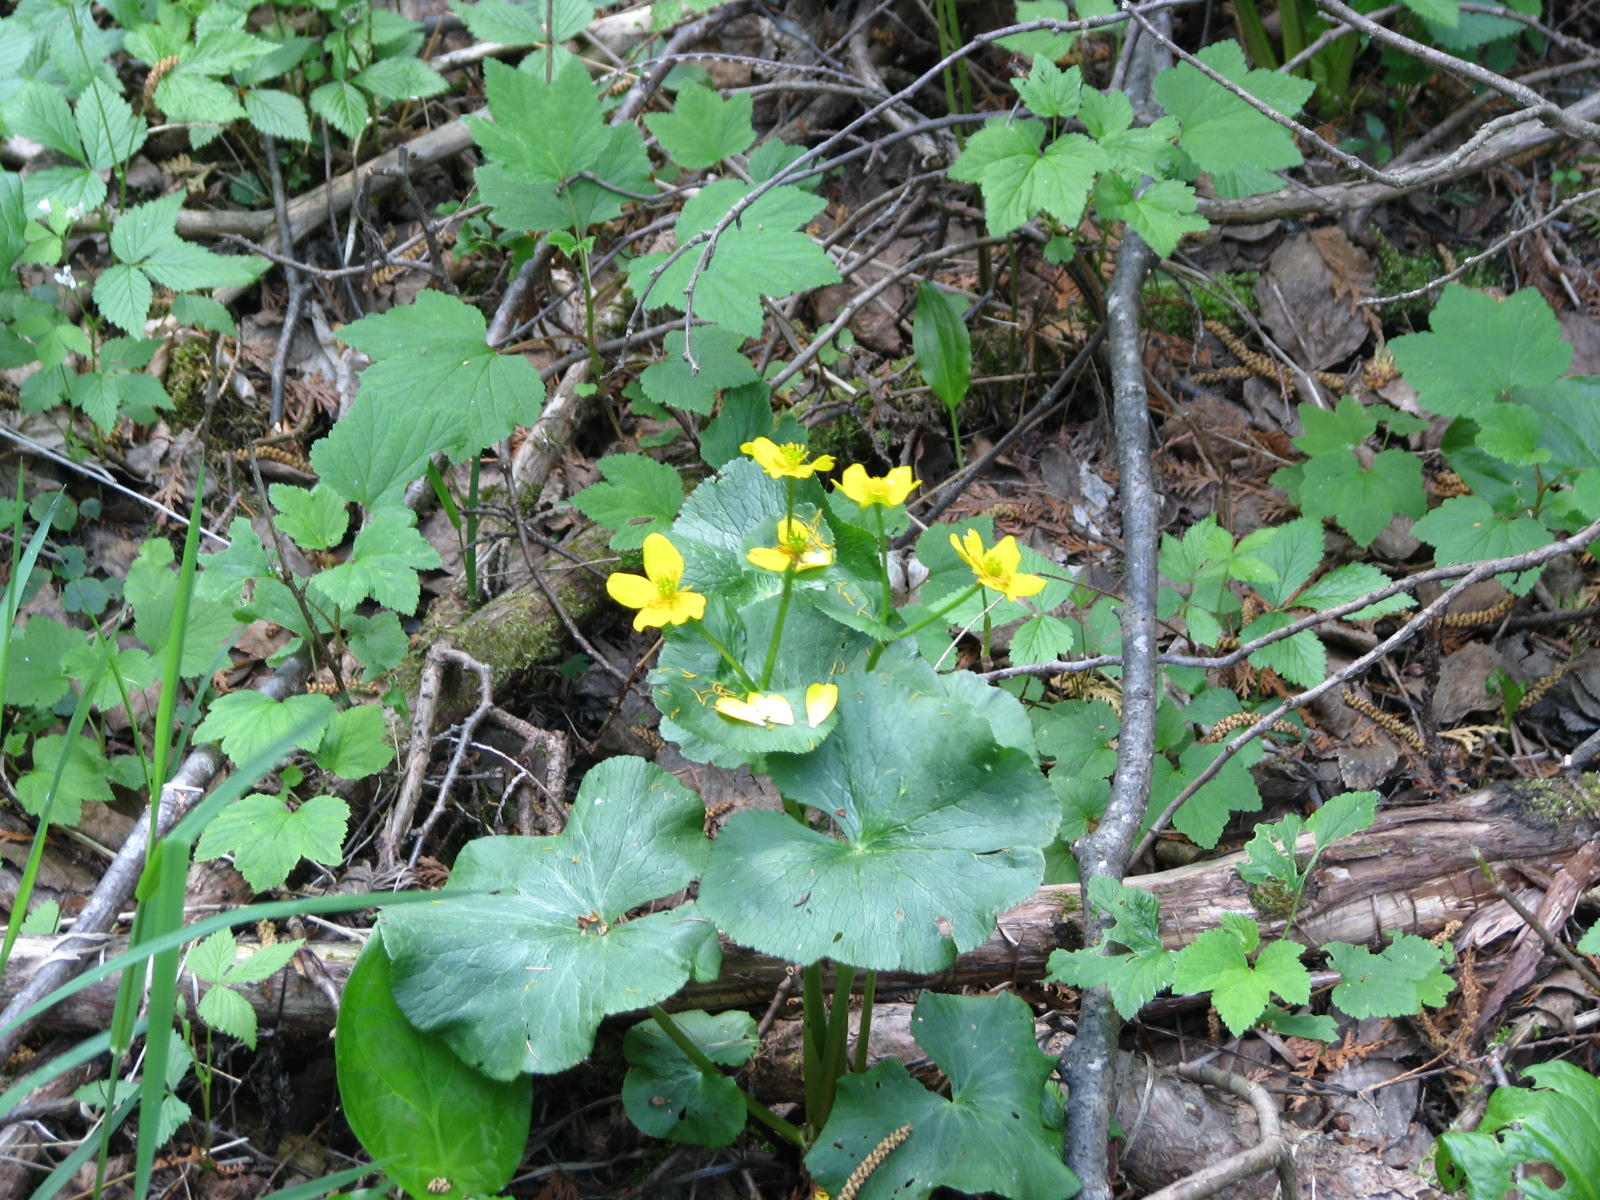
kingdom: Plantae
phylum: Tracheophyta
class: Magnoliopsida
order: Ranunculales
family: Ranunculaceae
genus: Caltha
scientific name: Caltha palustris
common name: Marsh marigold
